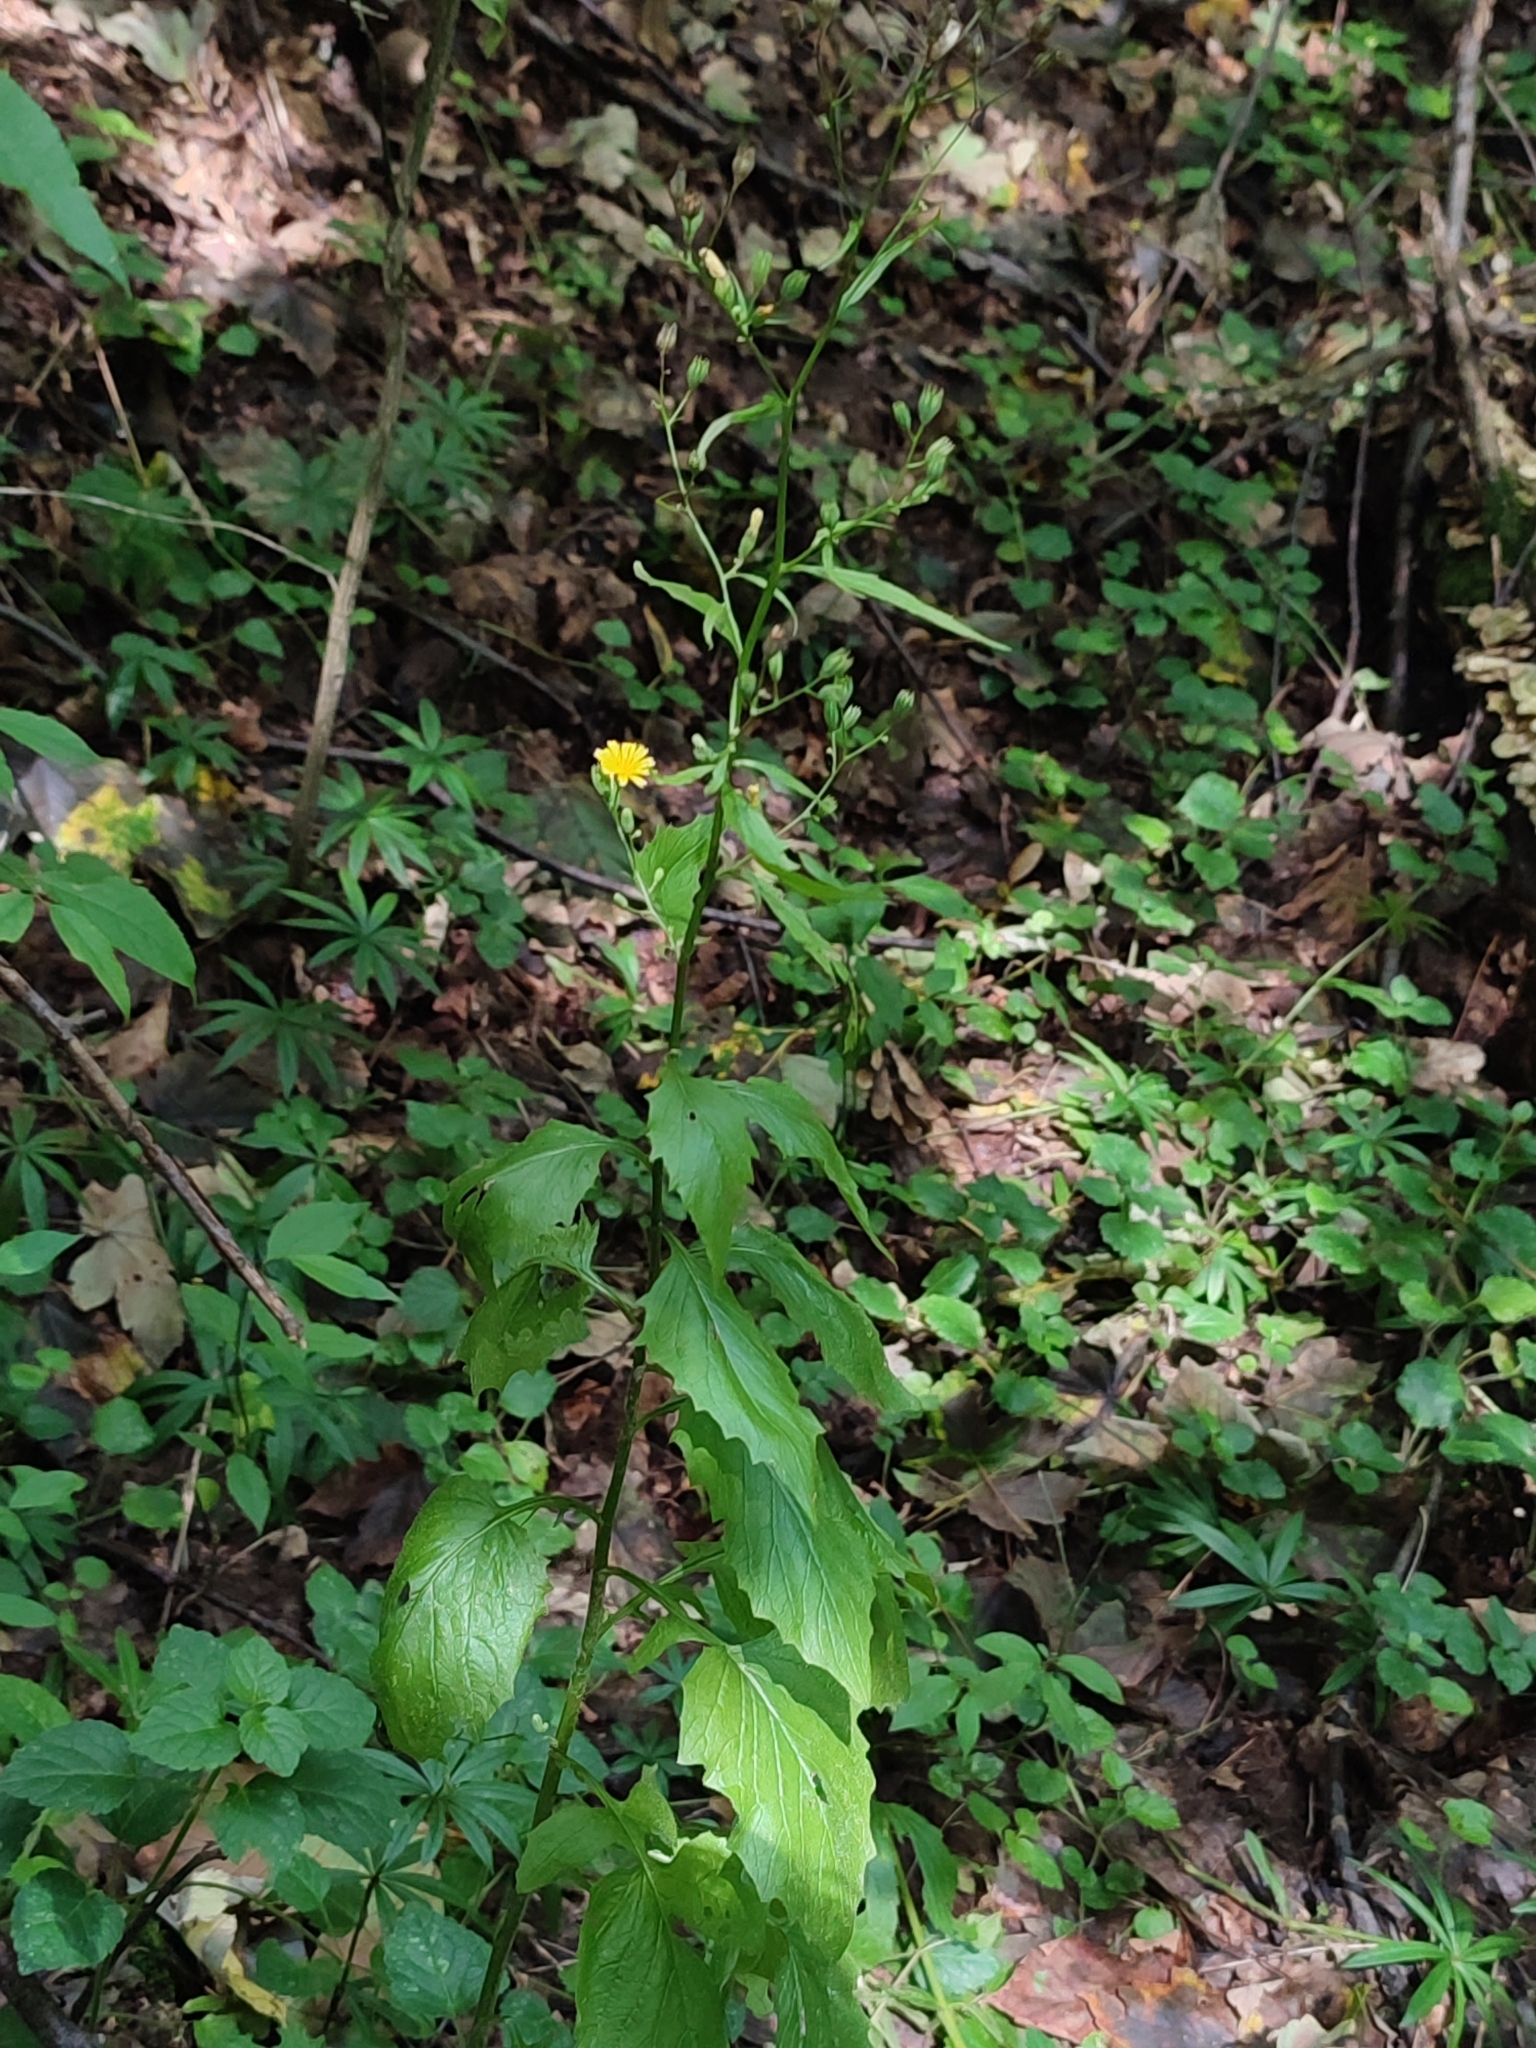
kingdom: Plantae
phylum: Tracheophyta
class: Magnoliopsida
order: Asterales
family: Asteraceae
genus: Lapsana
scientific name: Lapsana communis
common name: Nipplewort
